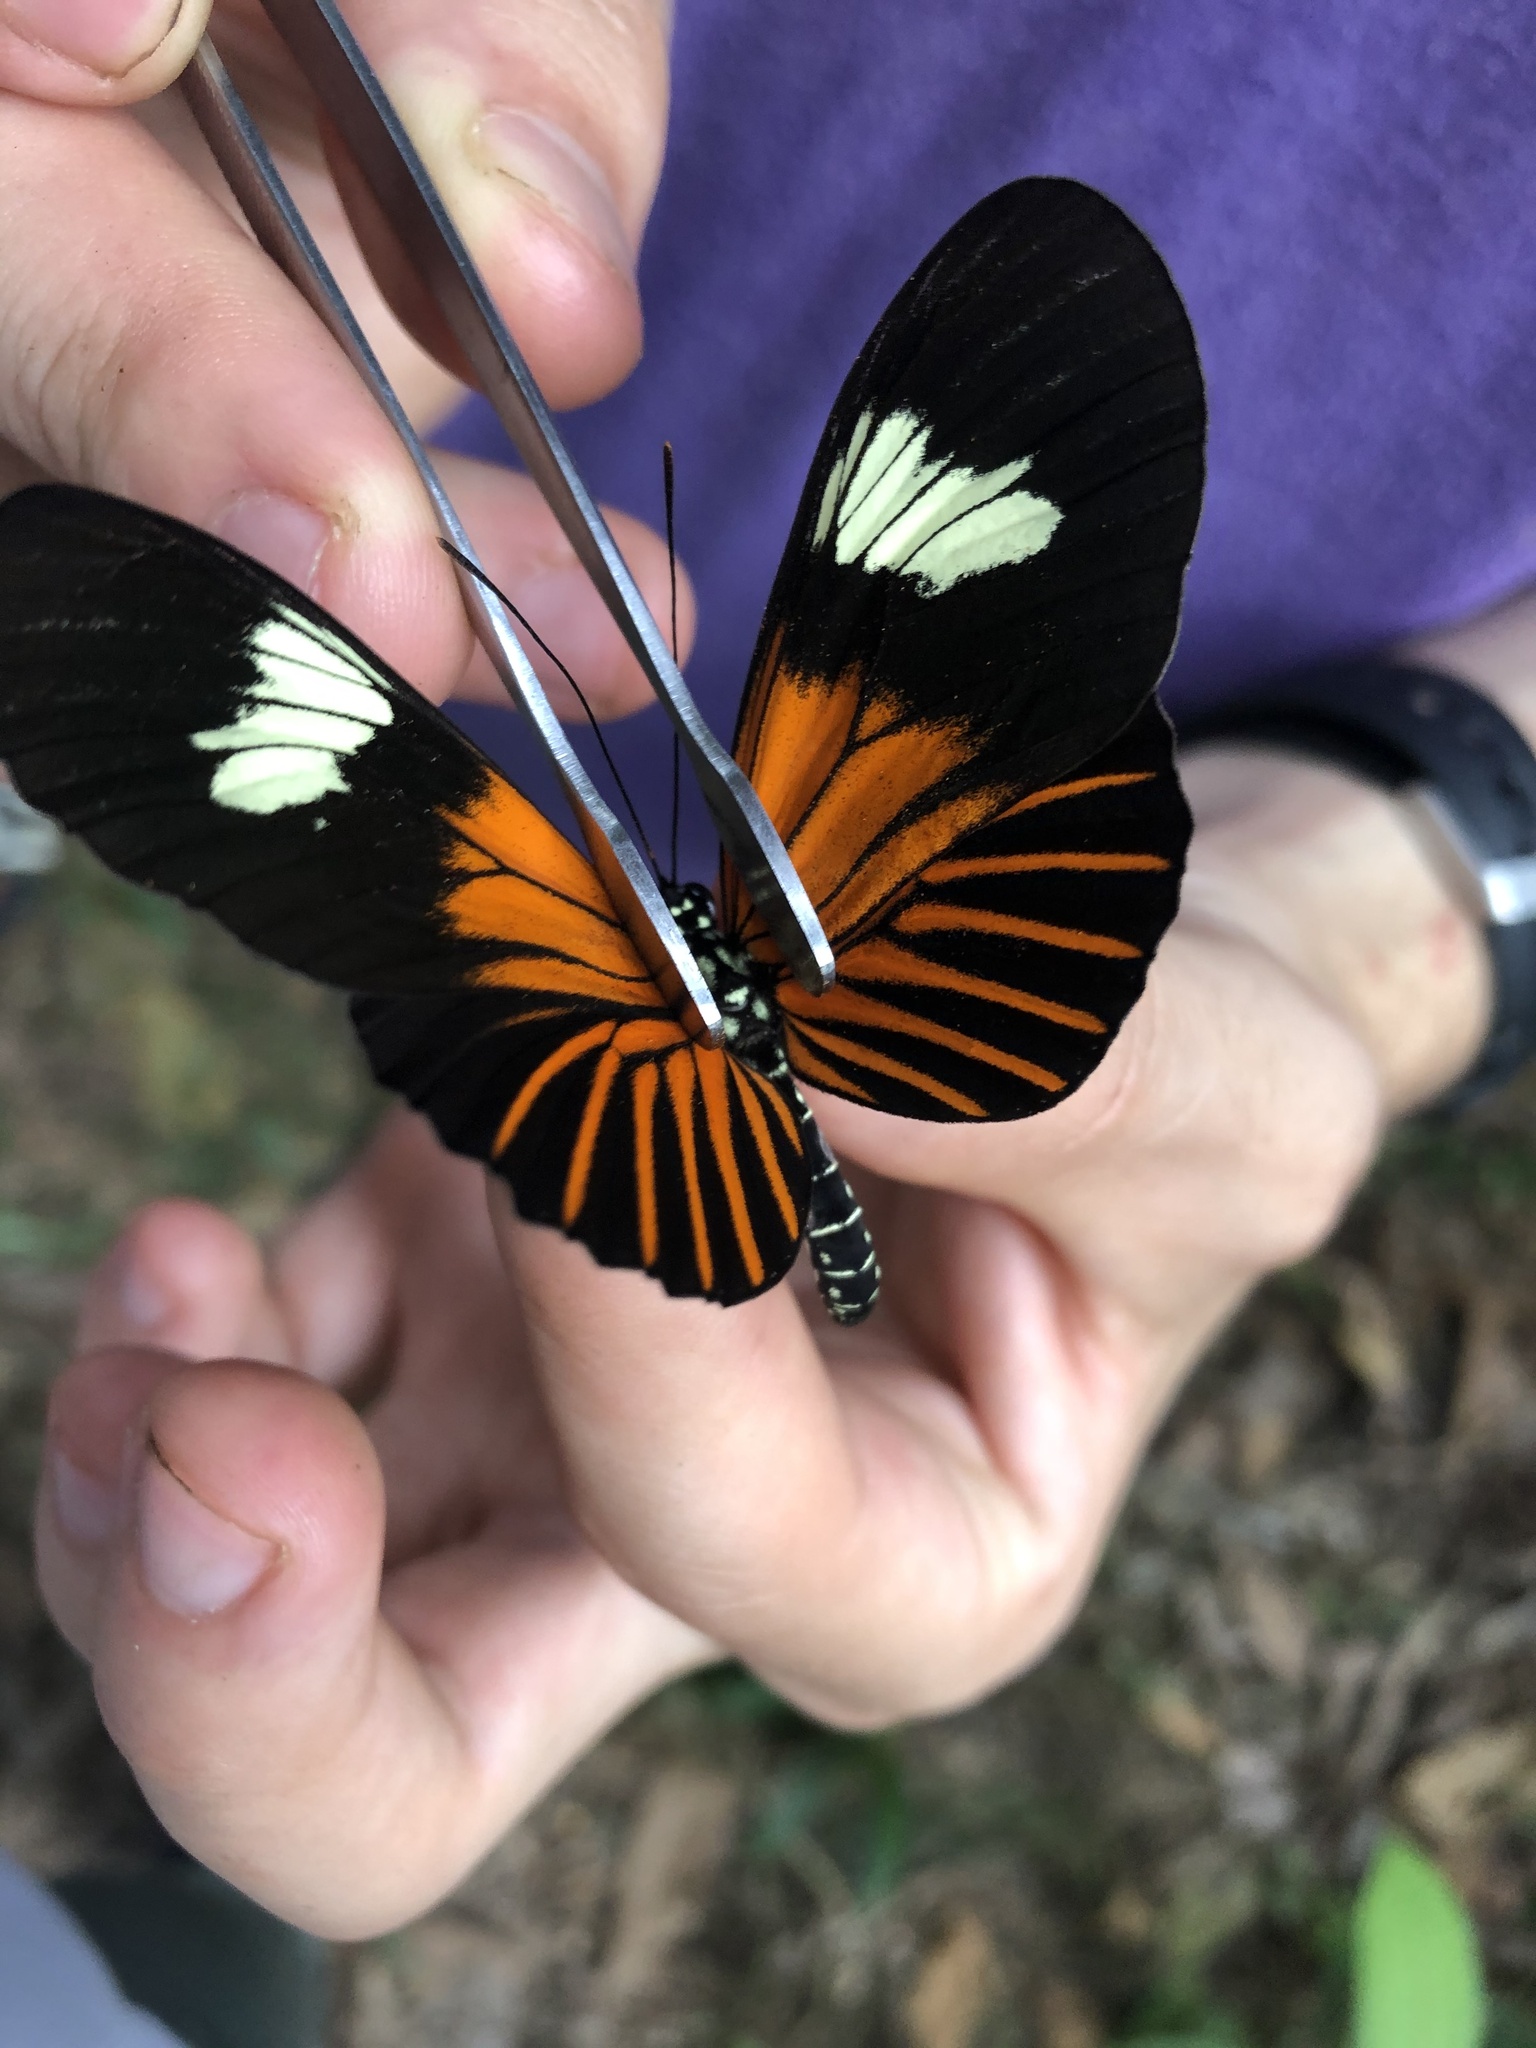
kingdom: Animalia
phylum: Arthropoda
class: Insecta
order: Lepidoptera
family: Nymphalidae
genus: Heliconius
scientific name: Heliconius xanthocles
